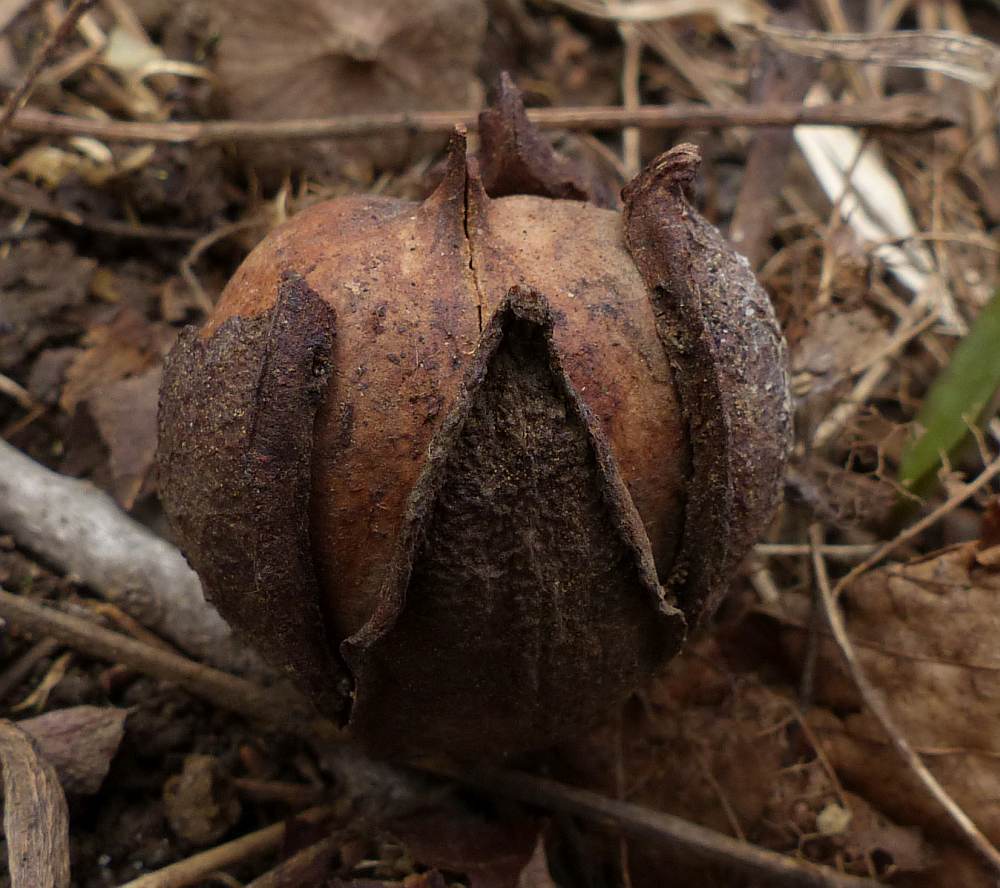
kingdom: Plantae
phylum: Tracheophyta
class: Magnoliopsida
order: Fagales
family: Juglandaceae
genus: Carya
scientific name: Carya cordiformis
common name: Bitternut hickory
